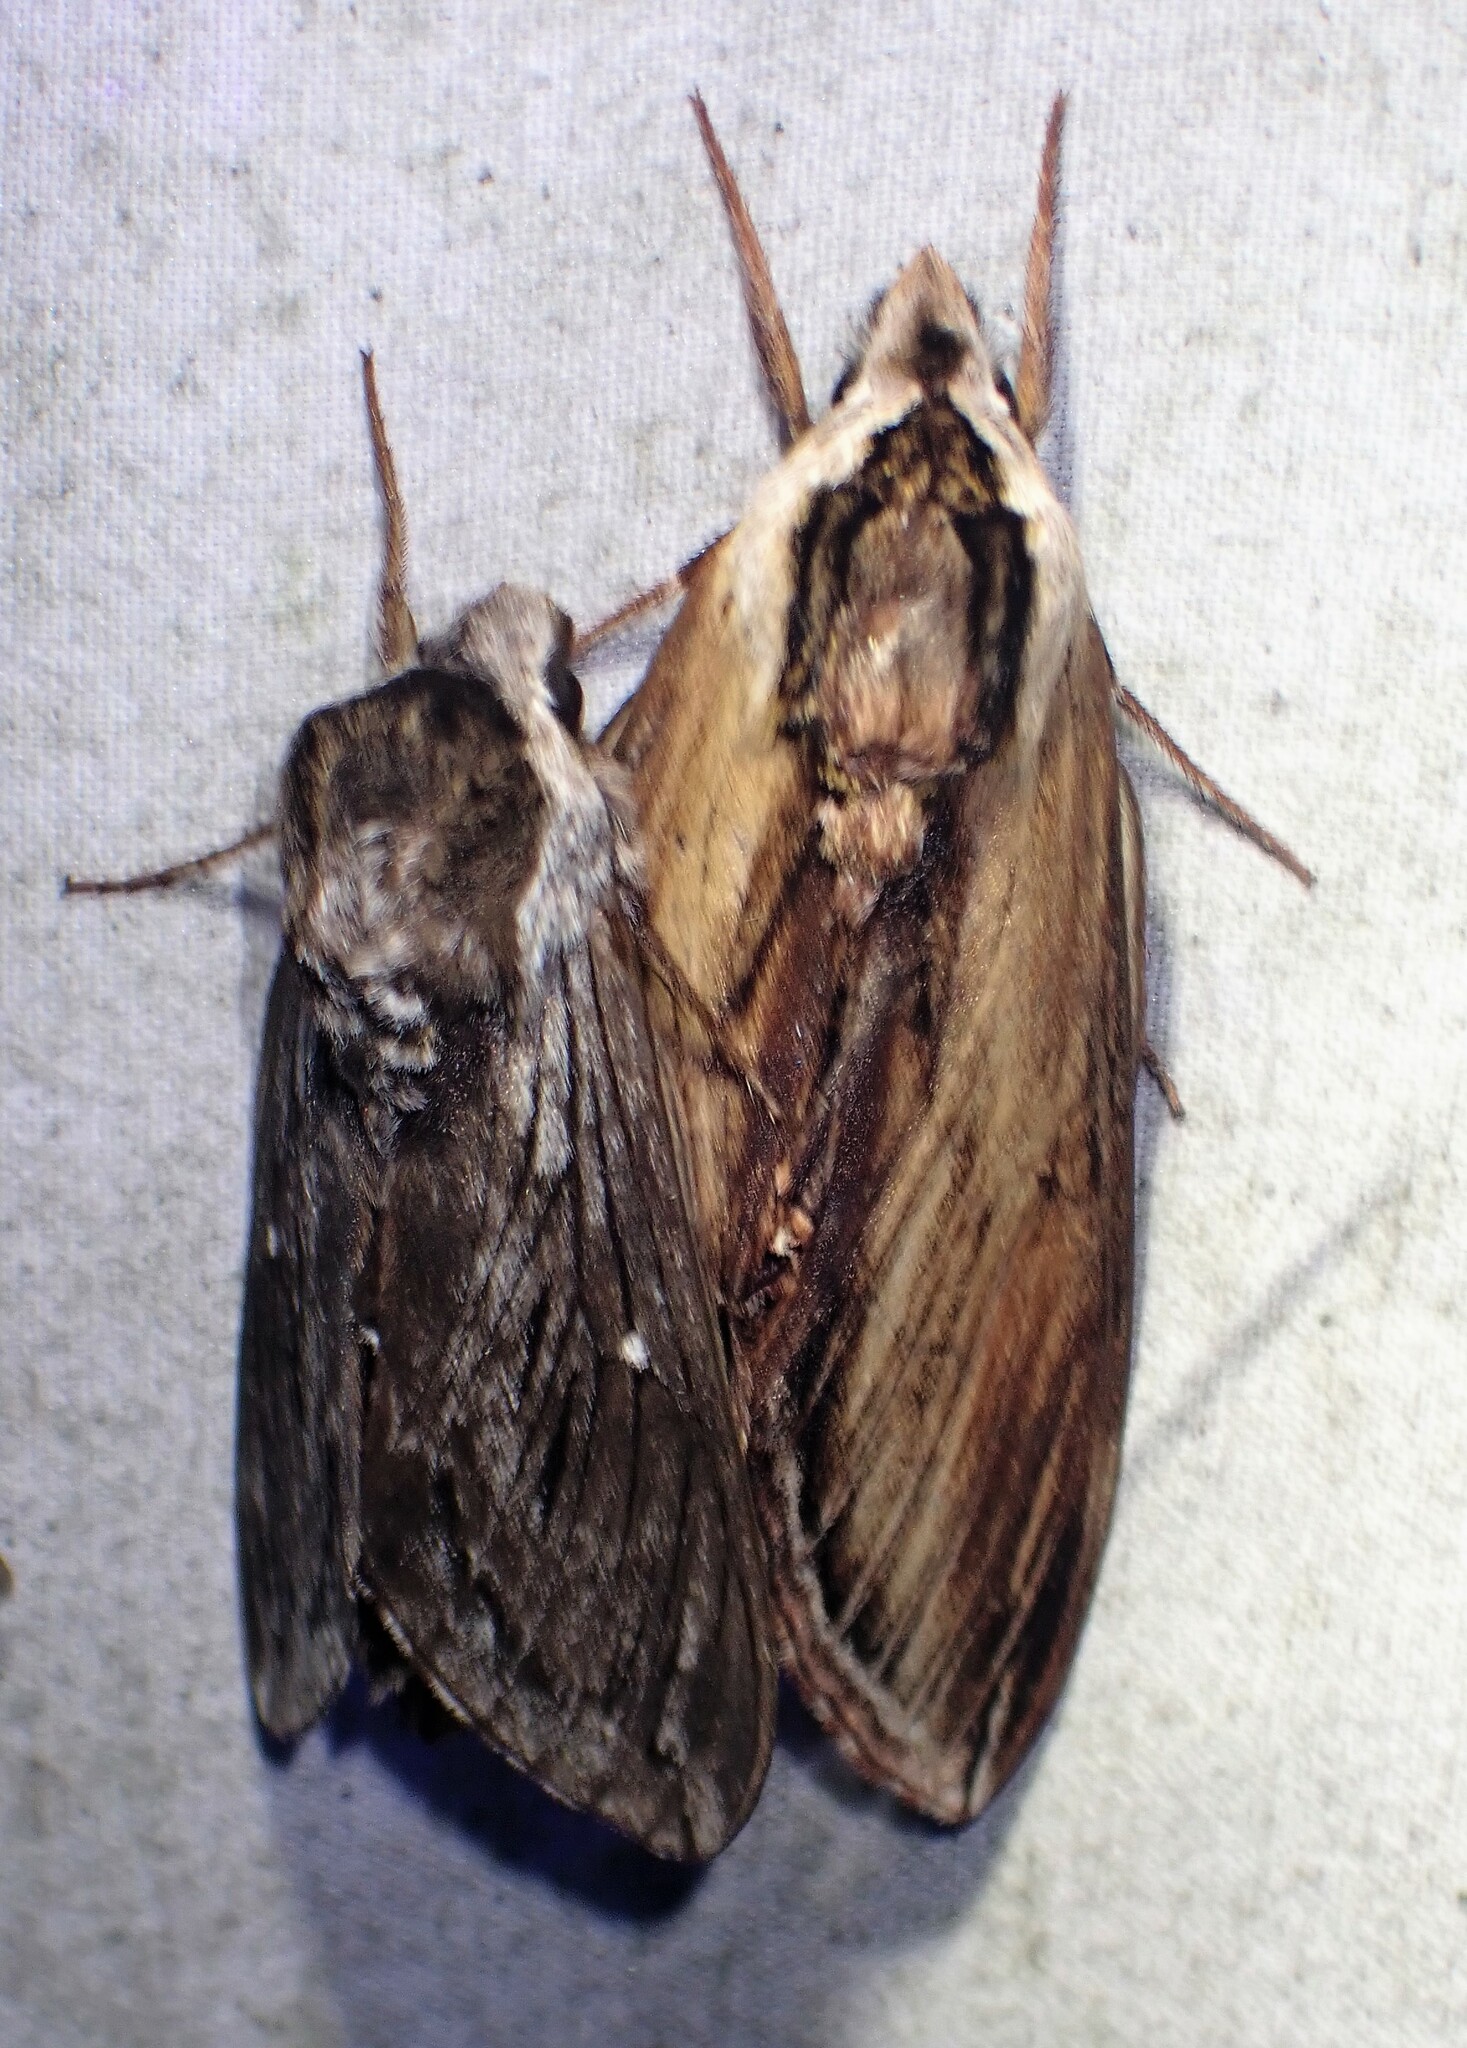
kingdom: Animalia
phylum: Arthropoda
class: Insecta
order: Lepidoptera
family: Sphingidae
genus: Sphinx
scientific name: Sphinx kalmiae
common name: Laurel sphinx
